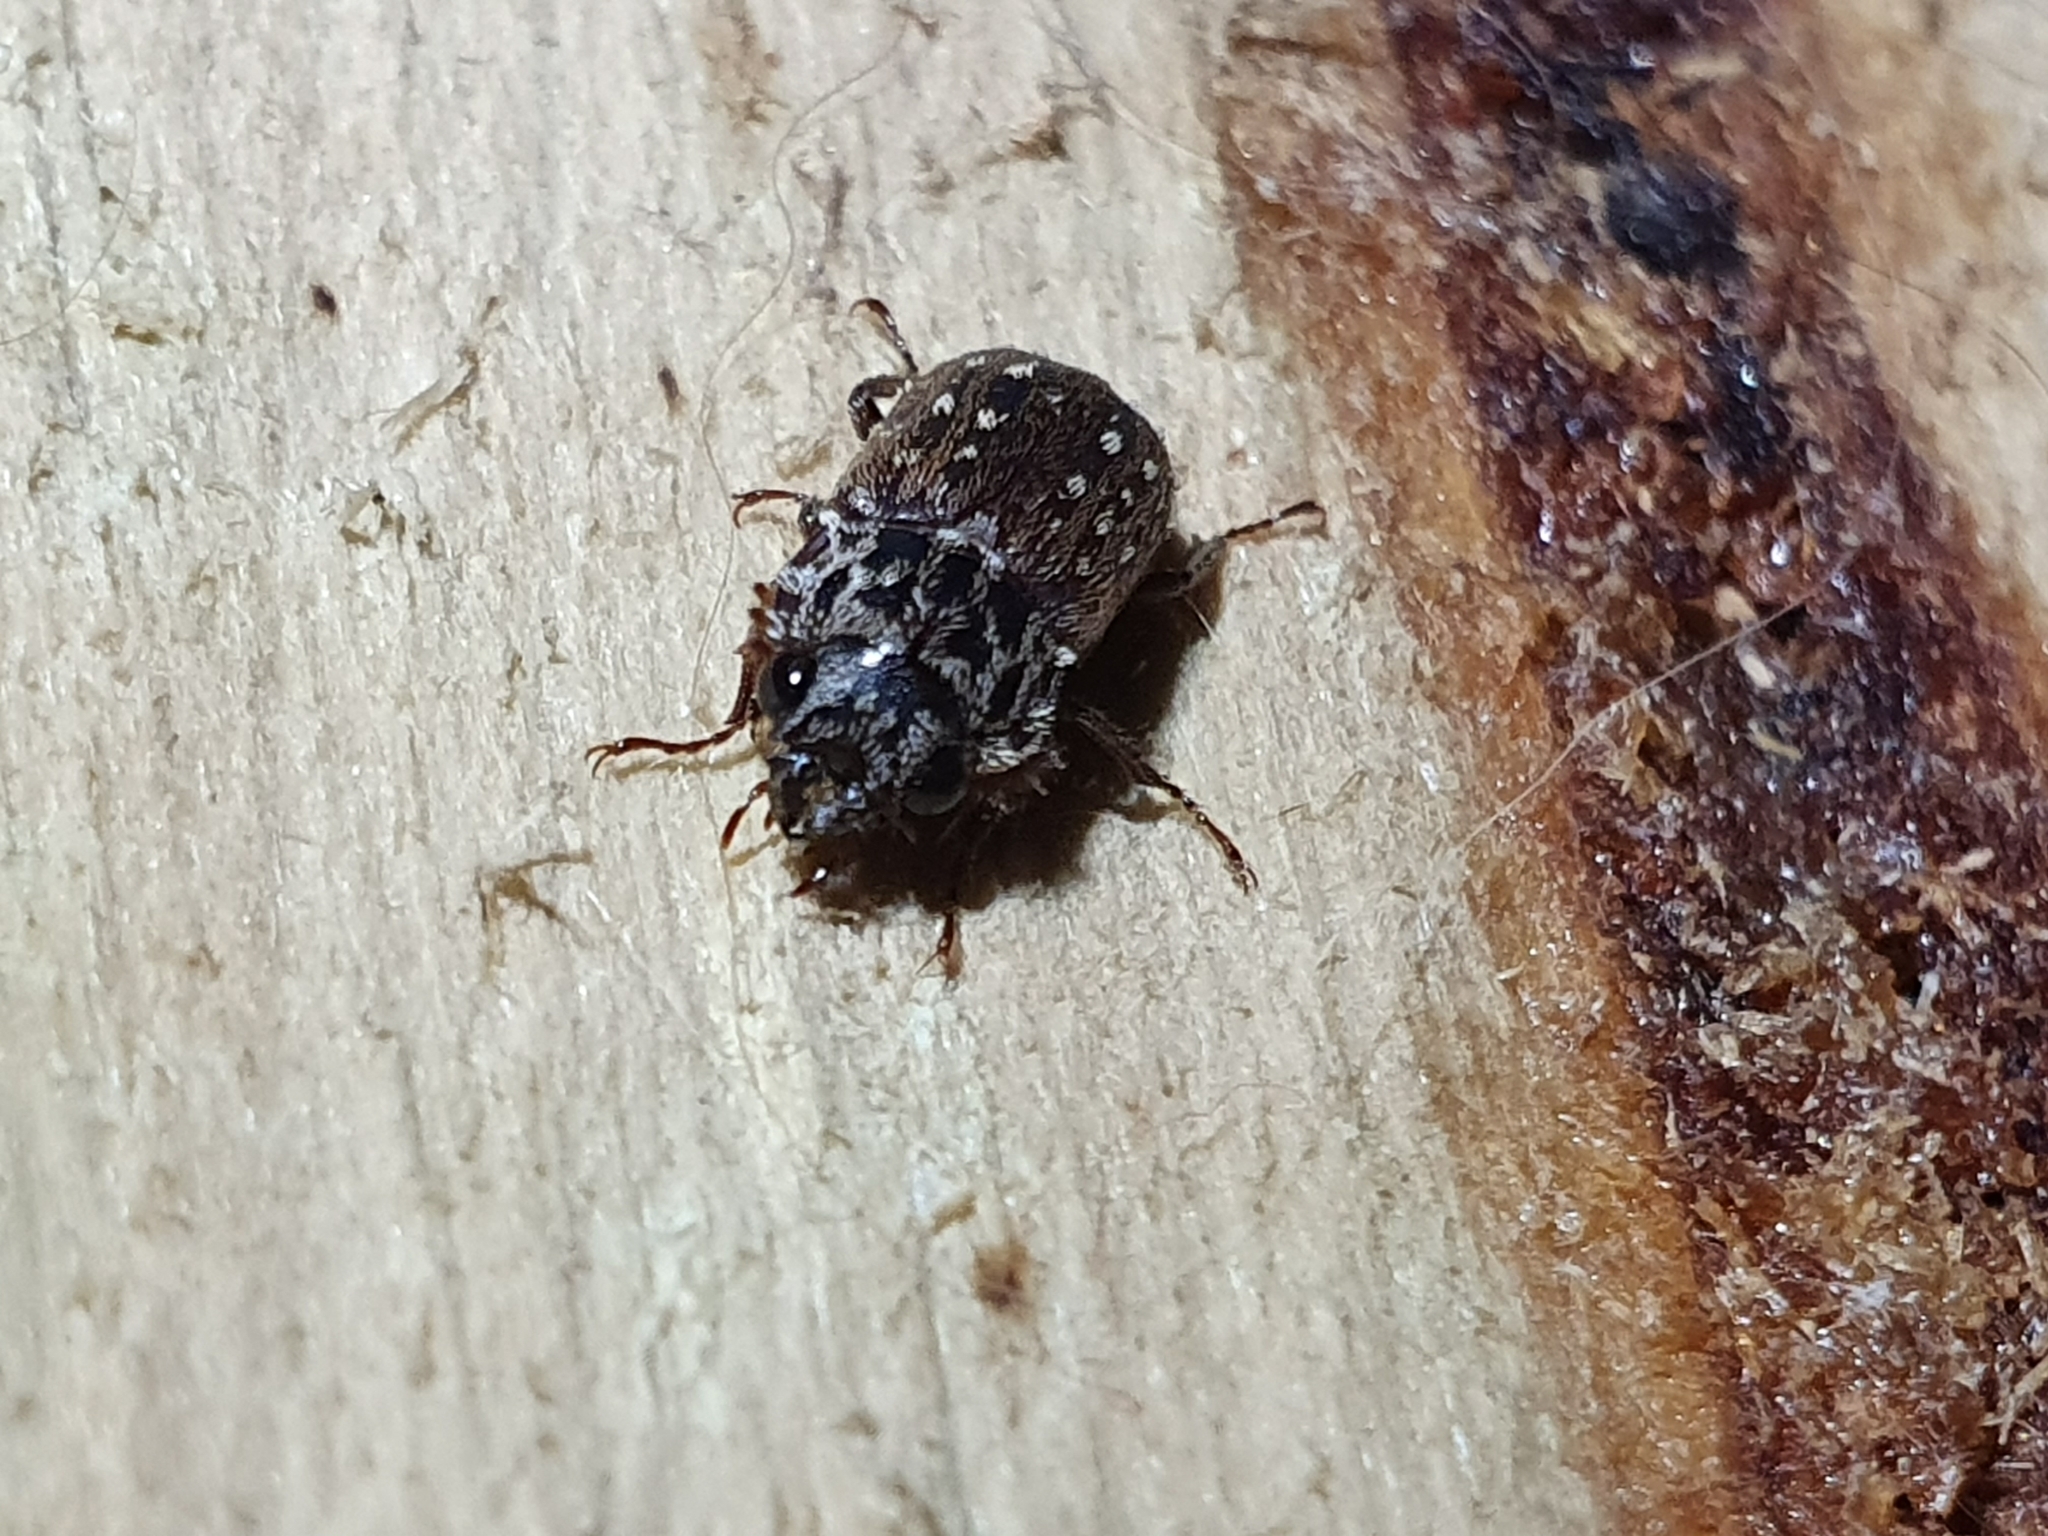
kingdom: Animalia
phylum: Arthropoda
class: Insecta
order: Coleoptera
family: Lucanidae
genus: Mitophyllus
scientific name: Mitophyllus irroratus
